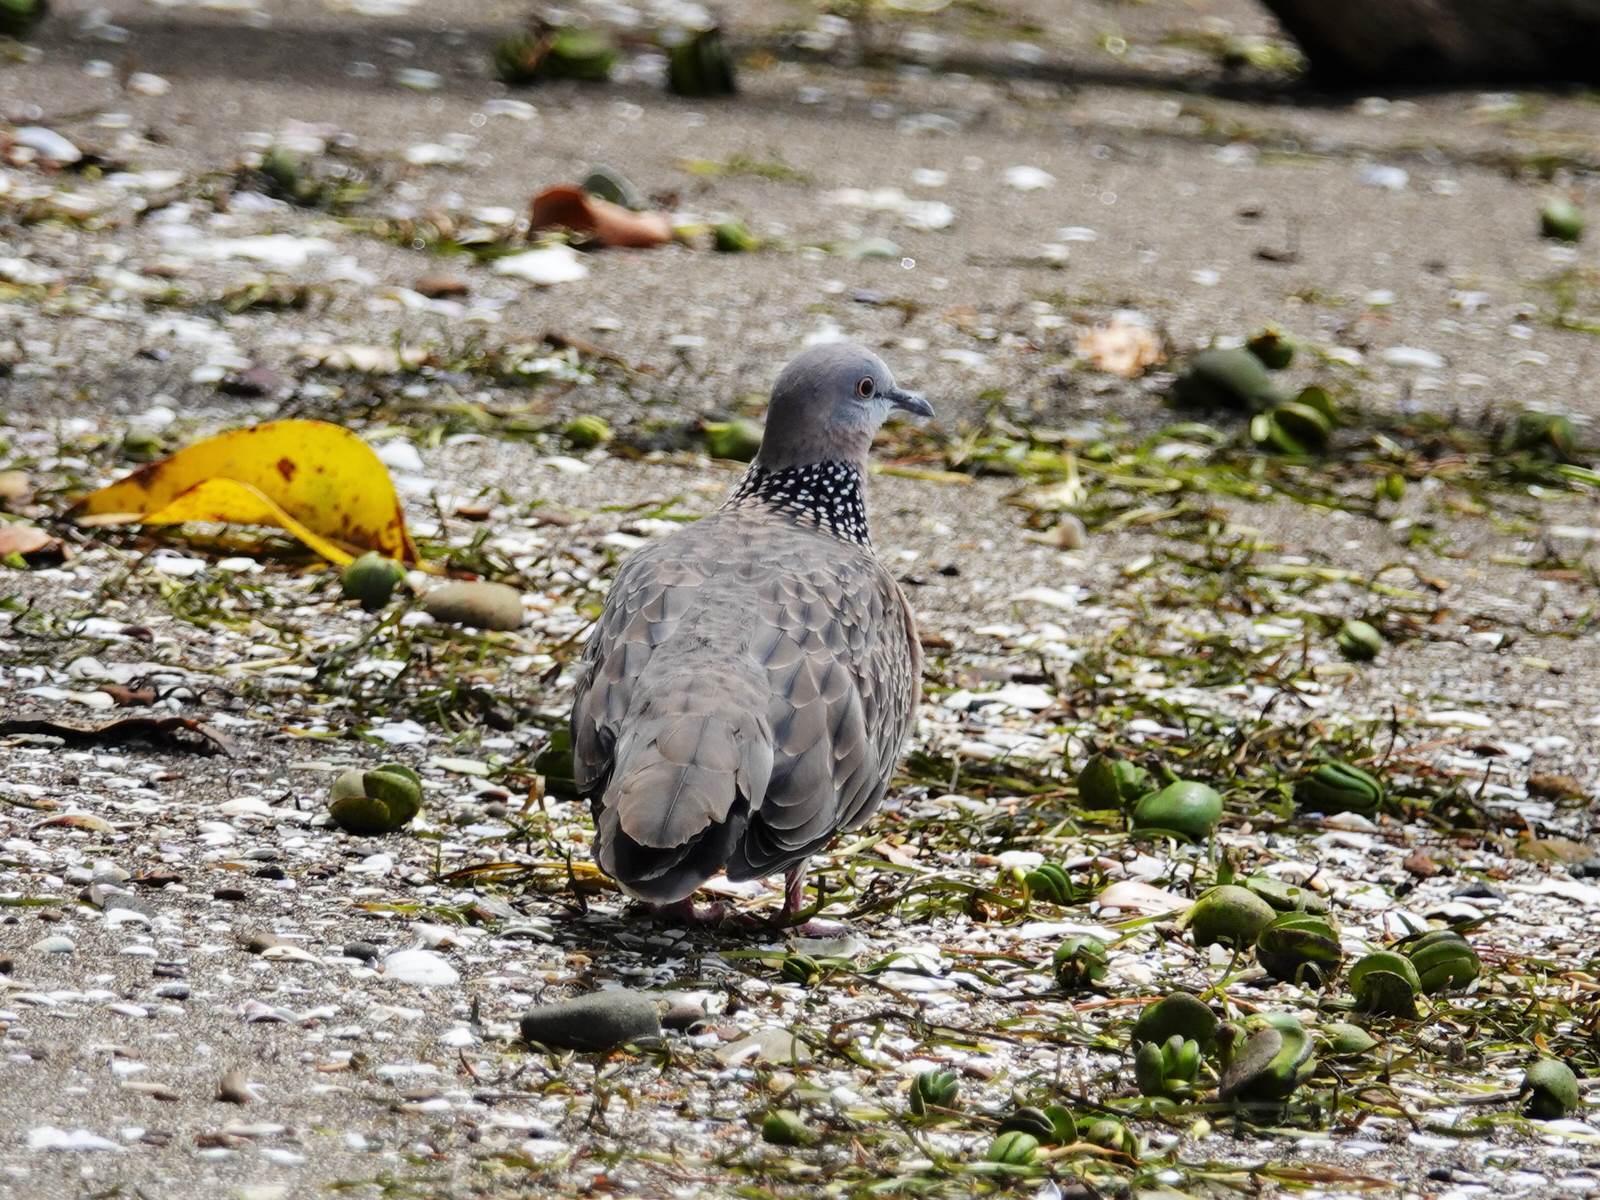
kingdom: Animalia
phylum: Chordata
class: Aves
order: Columbiformes
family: Columbidae
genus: Spilopelia
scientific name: Spilopelia chinensis
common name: Spotted dove
